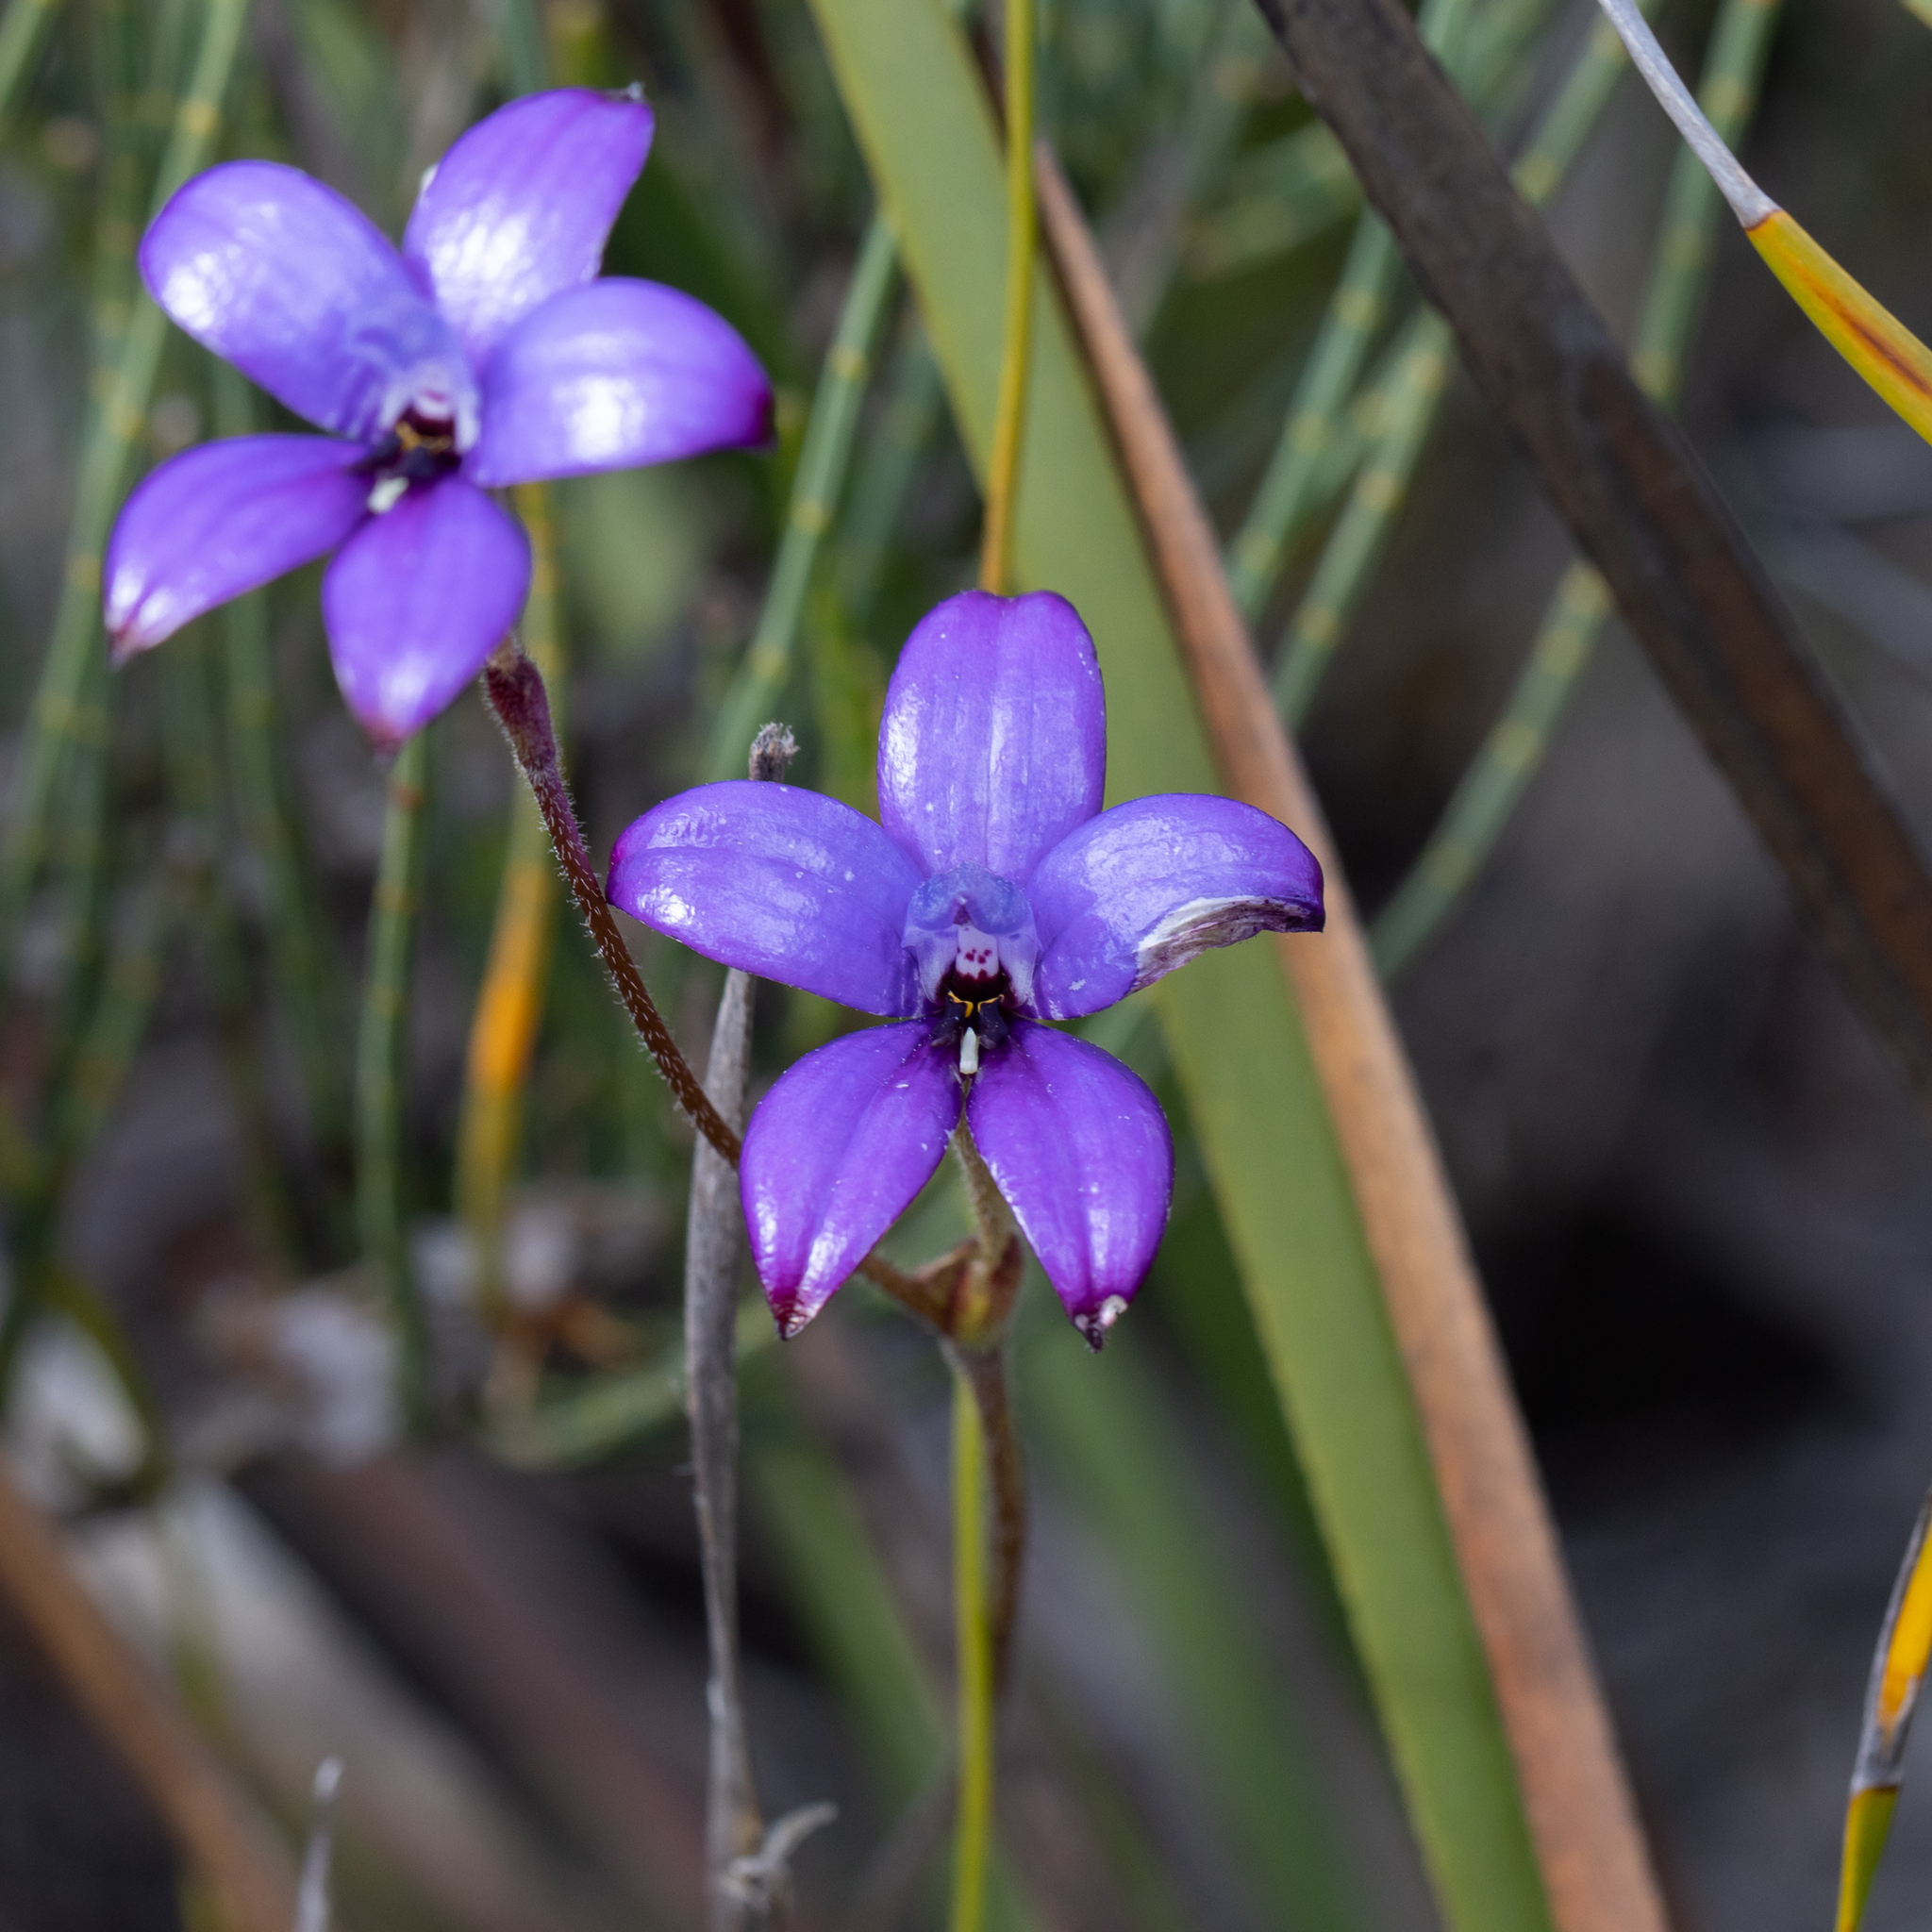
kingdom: Plantae
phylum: Tracheophyta
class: Liliopsida
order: Asparagales
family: Orchidaceae
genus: Caladenia
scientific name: Caladenia brunonis
